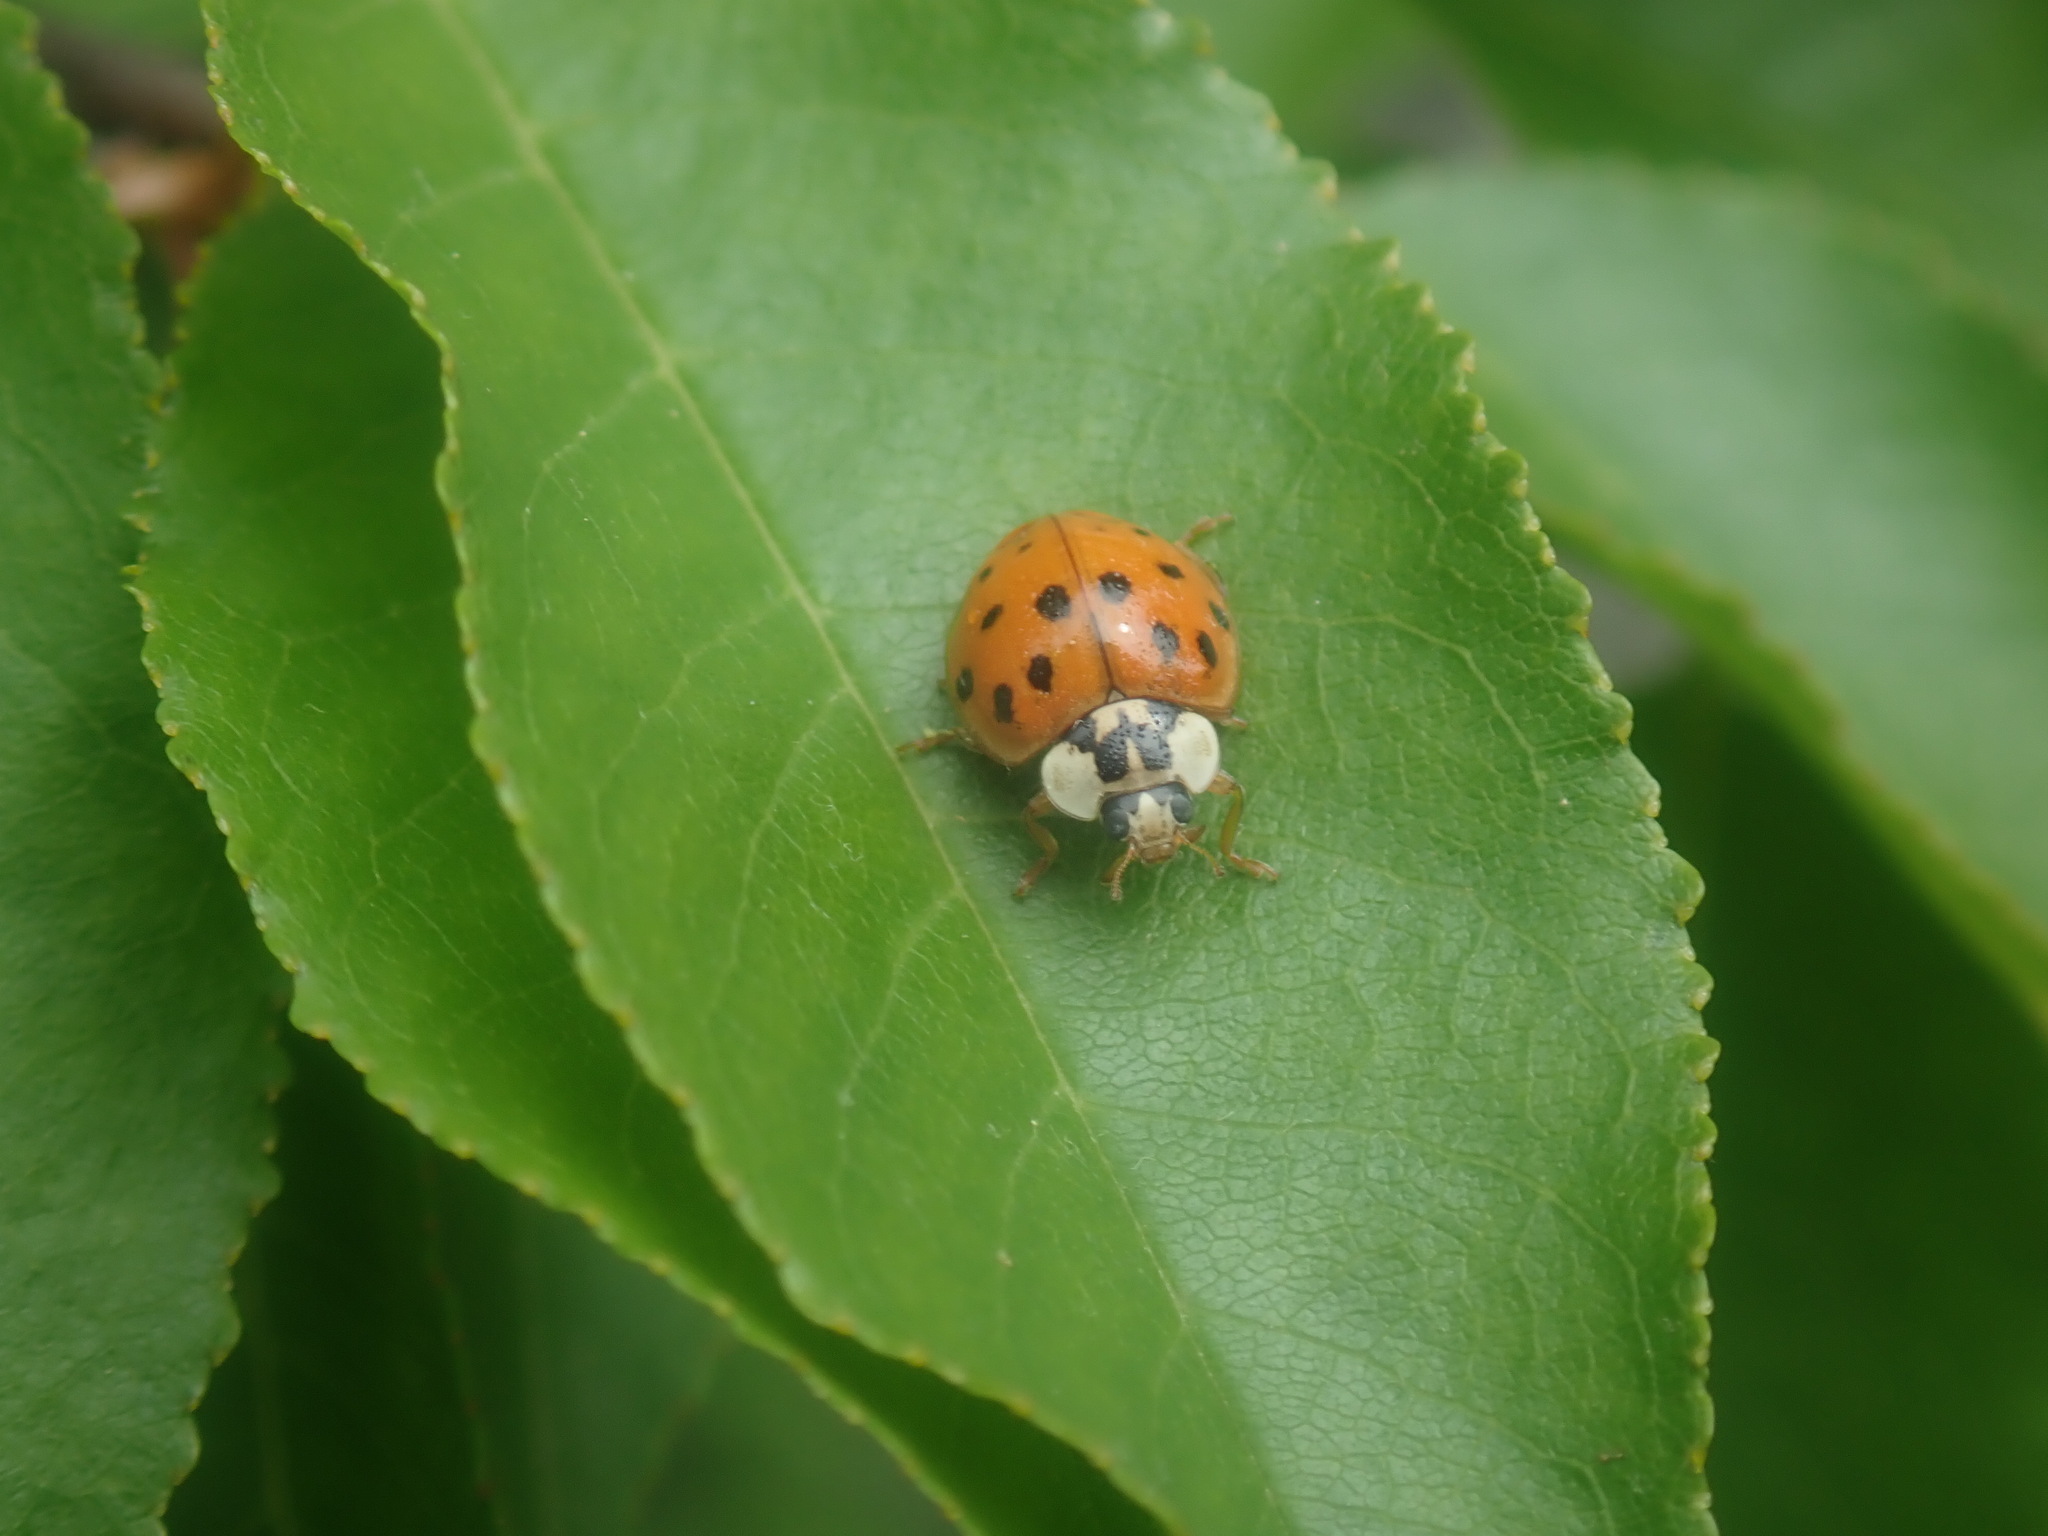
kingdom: Animalia
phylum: Arthropoda
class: Insecta
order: Coleoptera
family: Coccinellidae
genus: Harmonia
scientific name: Harmonia axyridis
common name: Harlequin ladybird
